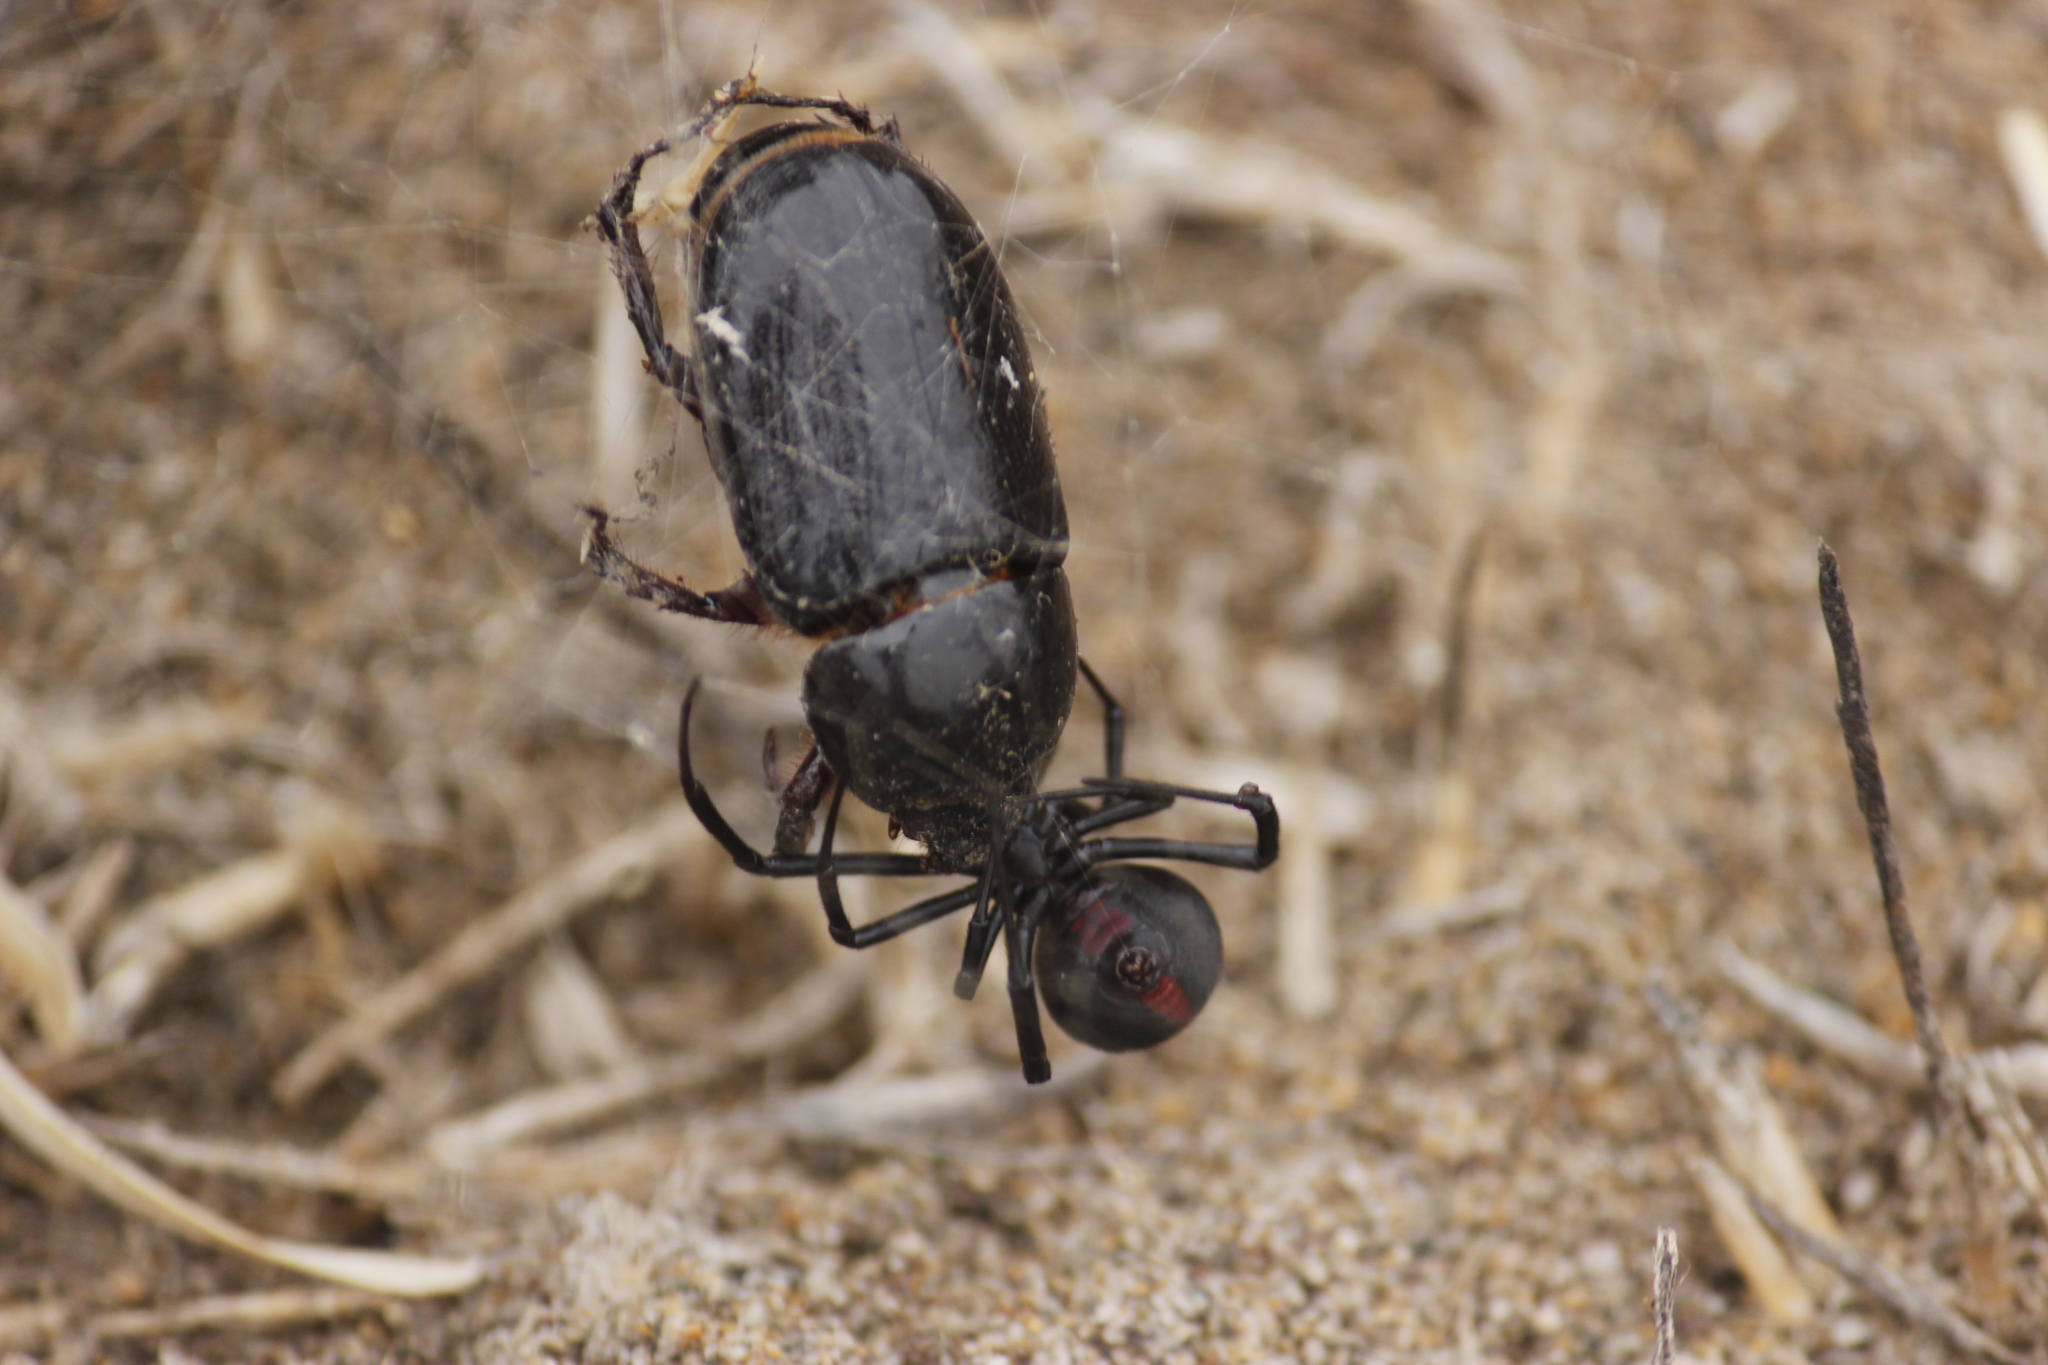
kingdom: Animalia
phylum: Arthropoda
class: Insecta
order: Coleoptera
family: Scarabaeidae
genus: Tomarus
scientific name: Tomarus maimon
